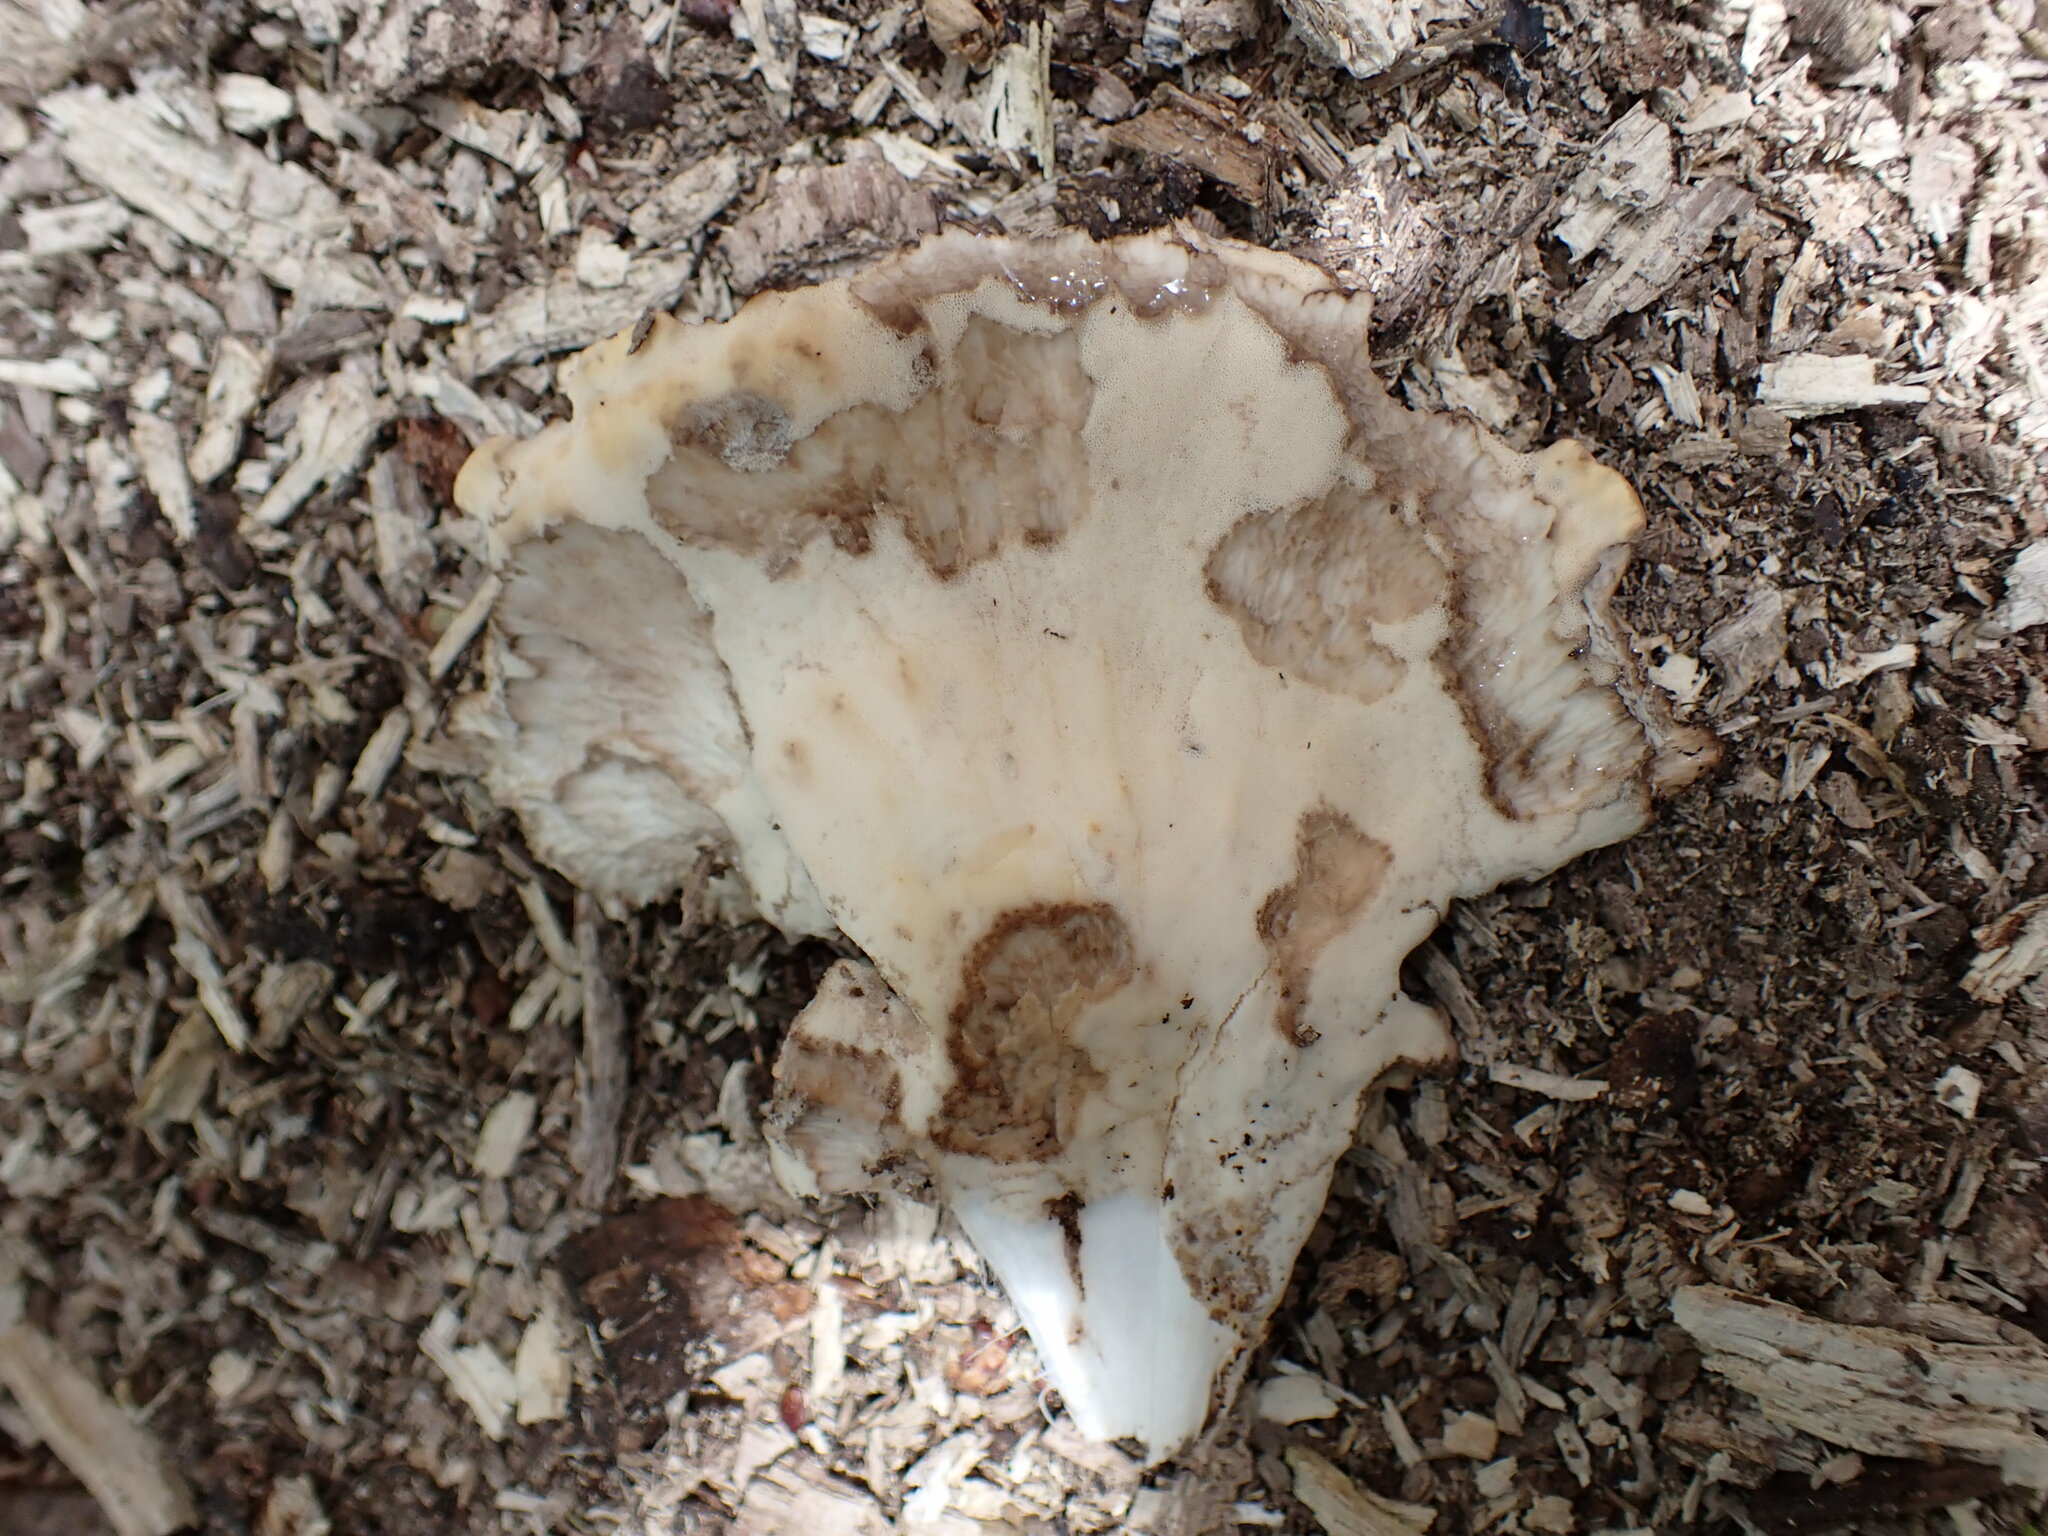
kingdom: Fungi
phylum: Basidiomycota
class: Agaricomycetes
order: Polyporales
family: Meripilaceae
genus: Meripilus
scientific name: Meripilus sumstinei
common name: Black-staining polypore
